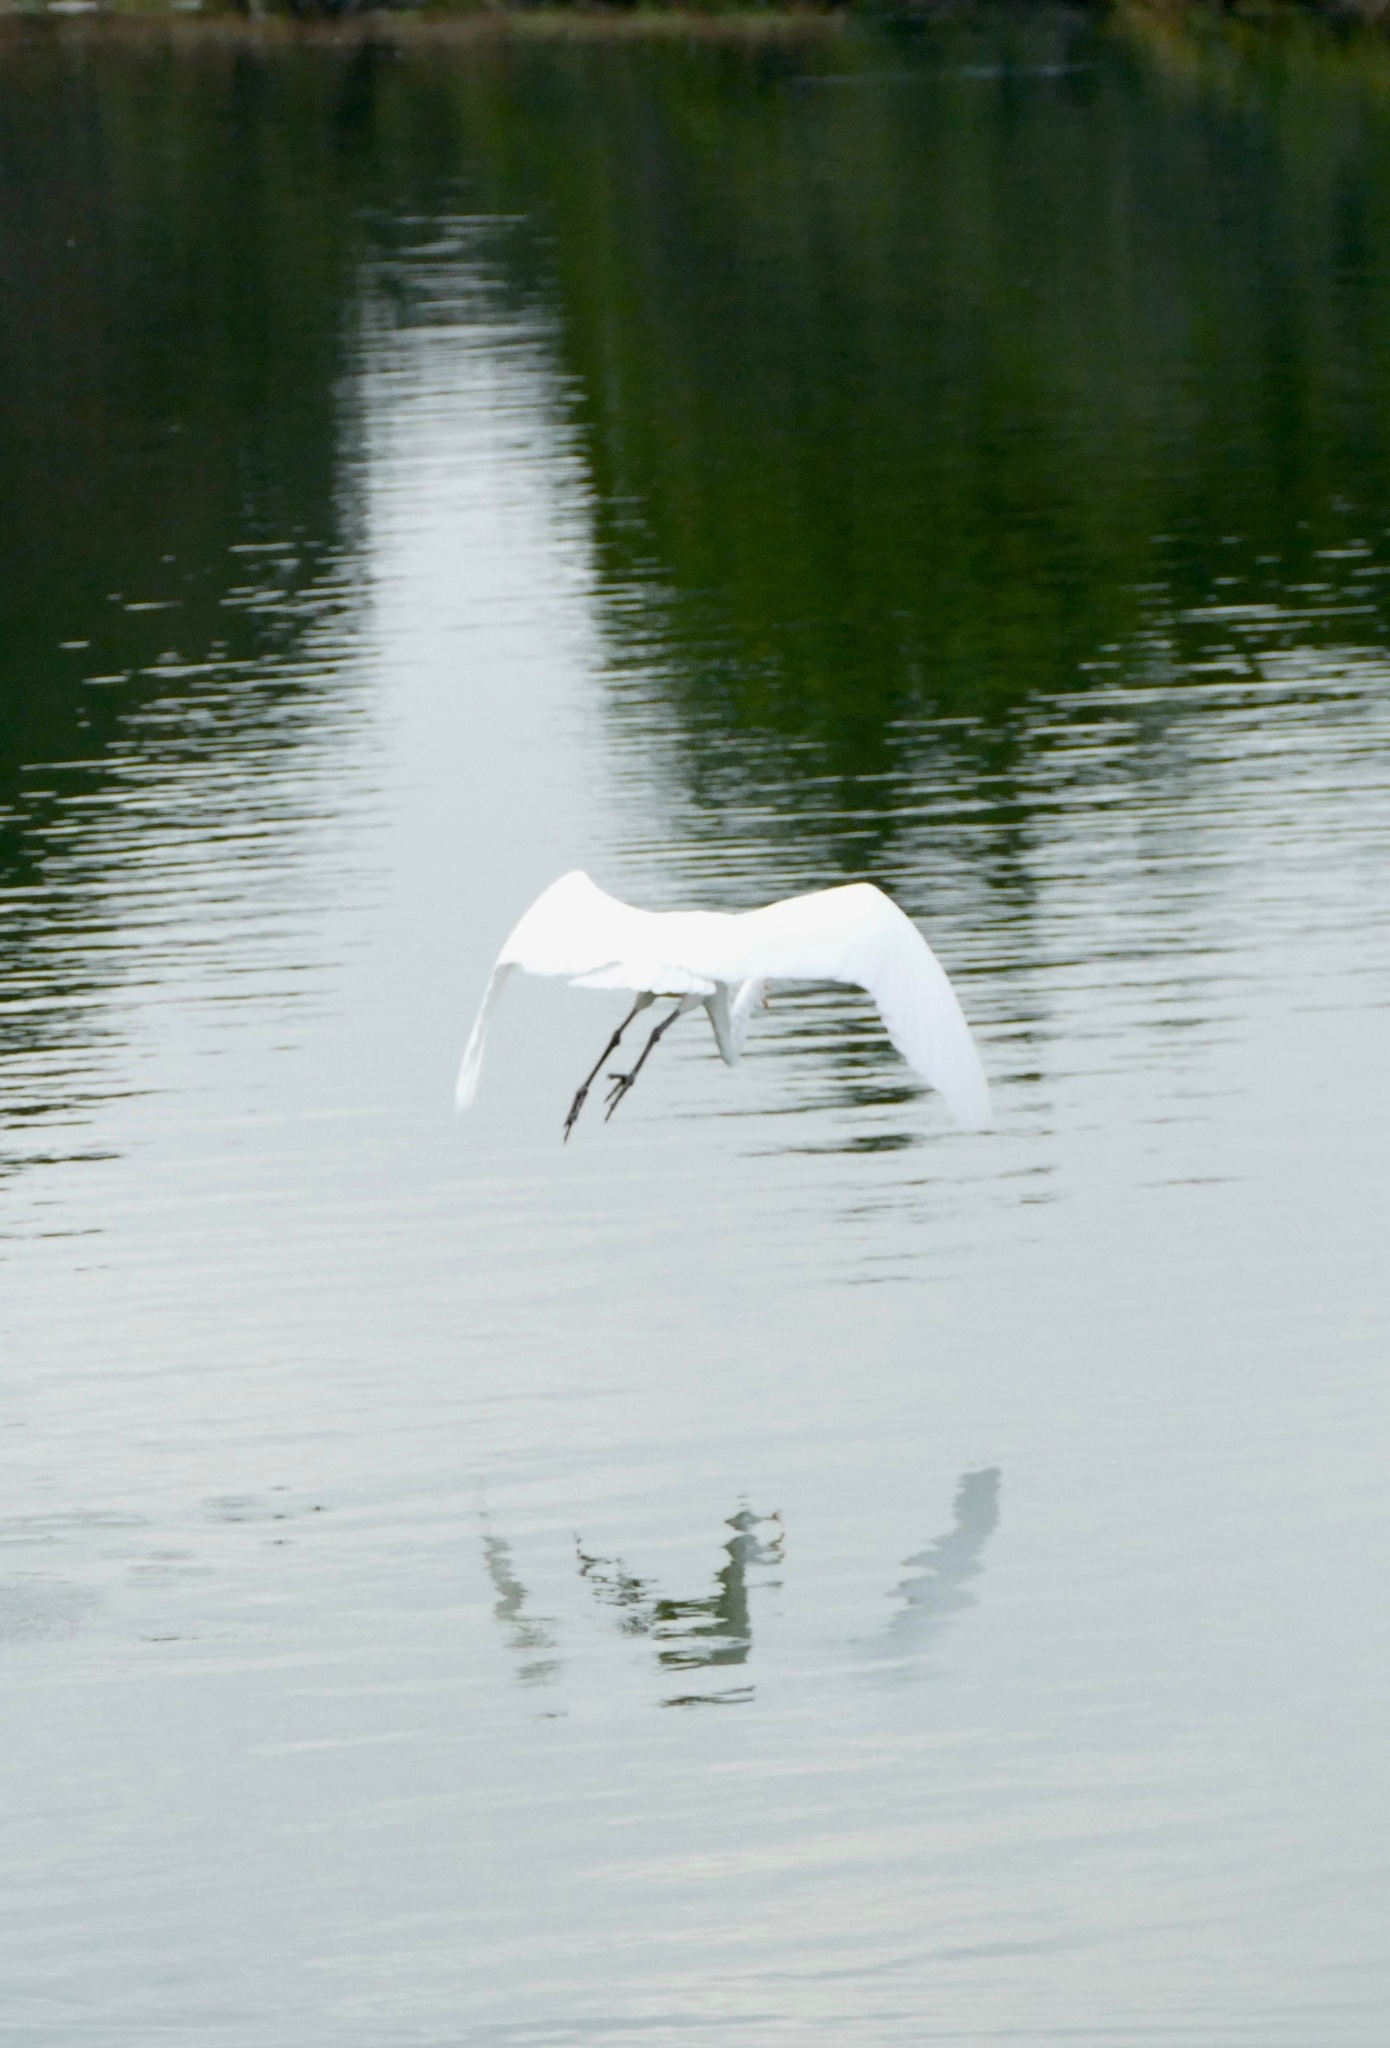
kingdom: Animalia
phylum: Chordata
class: Aves
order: Pelecaniformes
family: Ardeidae
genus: Ardea
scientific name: Ardea alba
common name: Great egret
